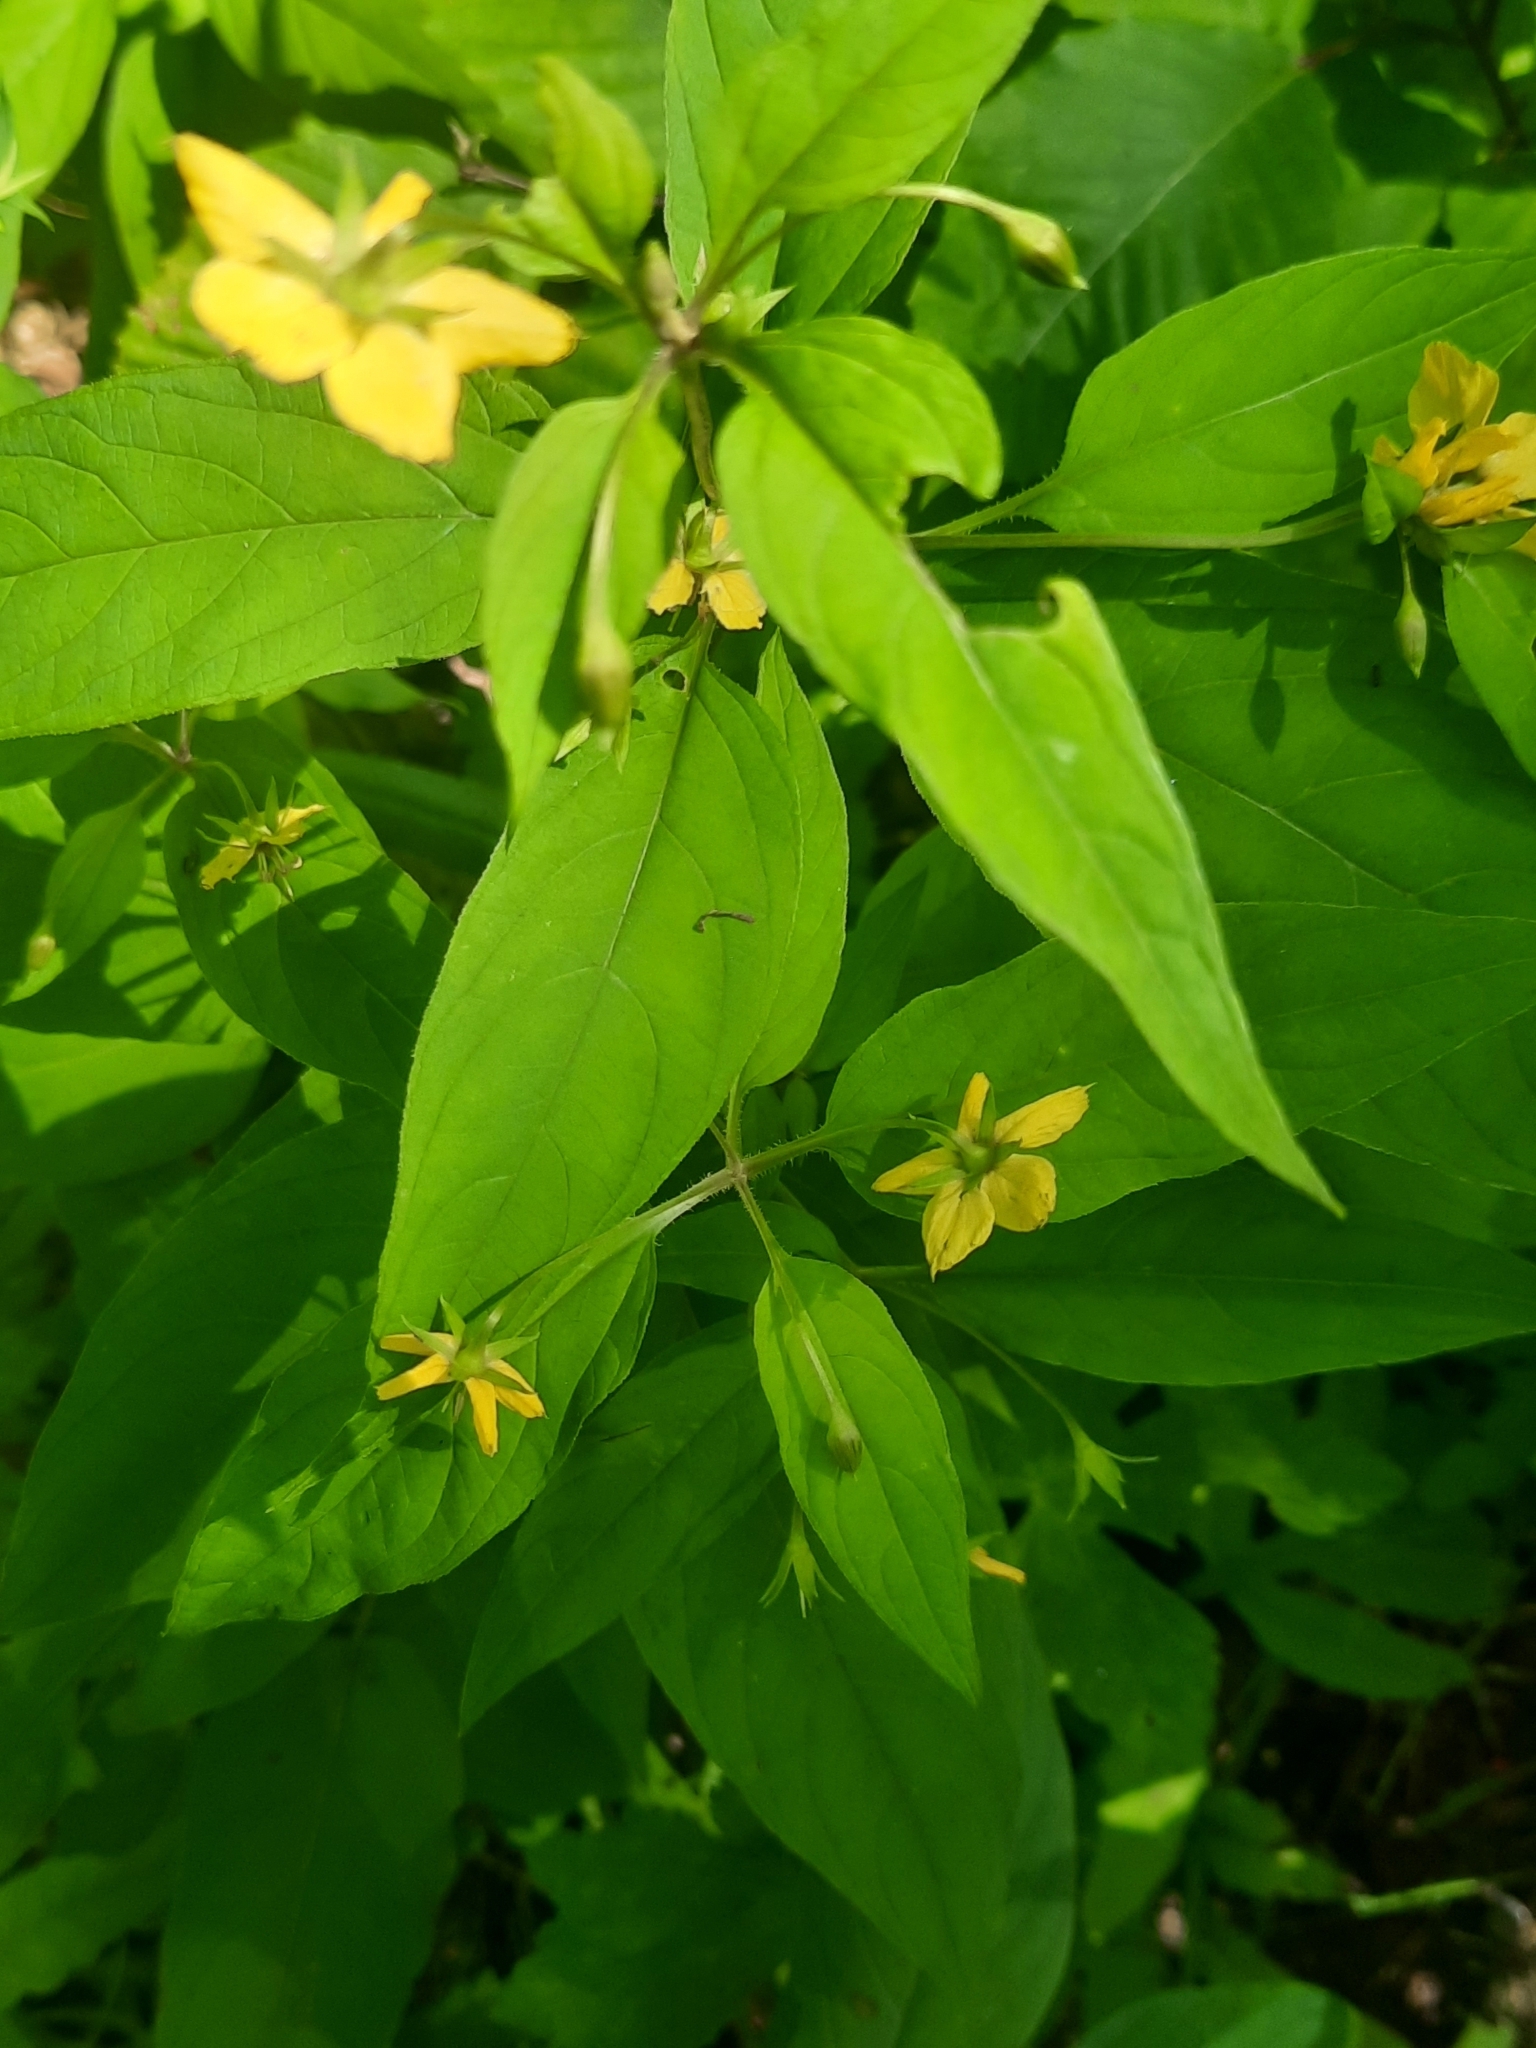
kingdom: Plantae
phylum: Tracheophyta
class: Magnoliopsida
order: Ericales
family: Primulaceae
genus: Lysimachia
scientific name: Lysimachia ciliata
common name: Fringed loosestrife
